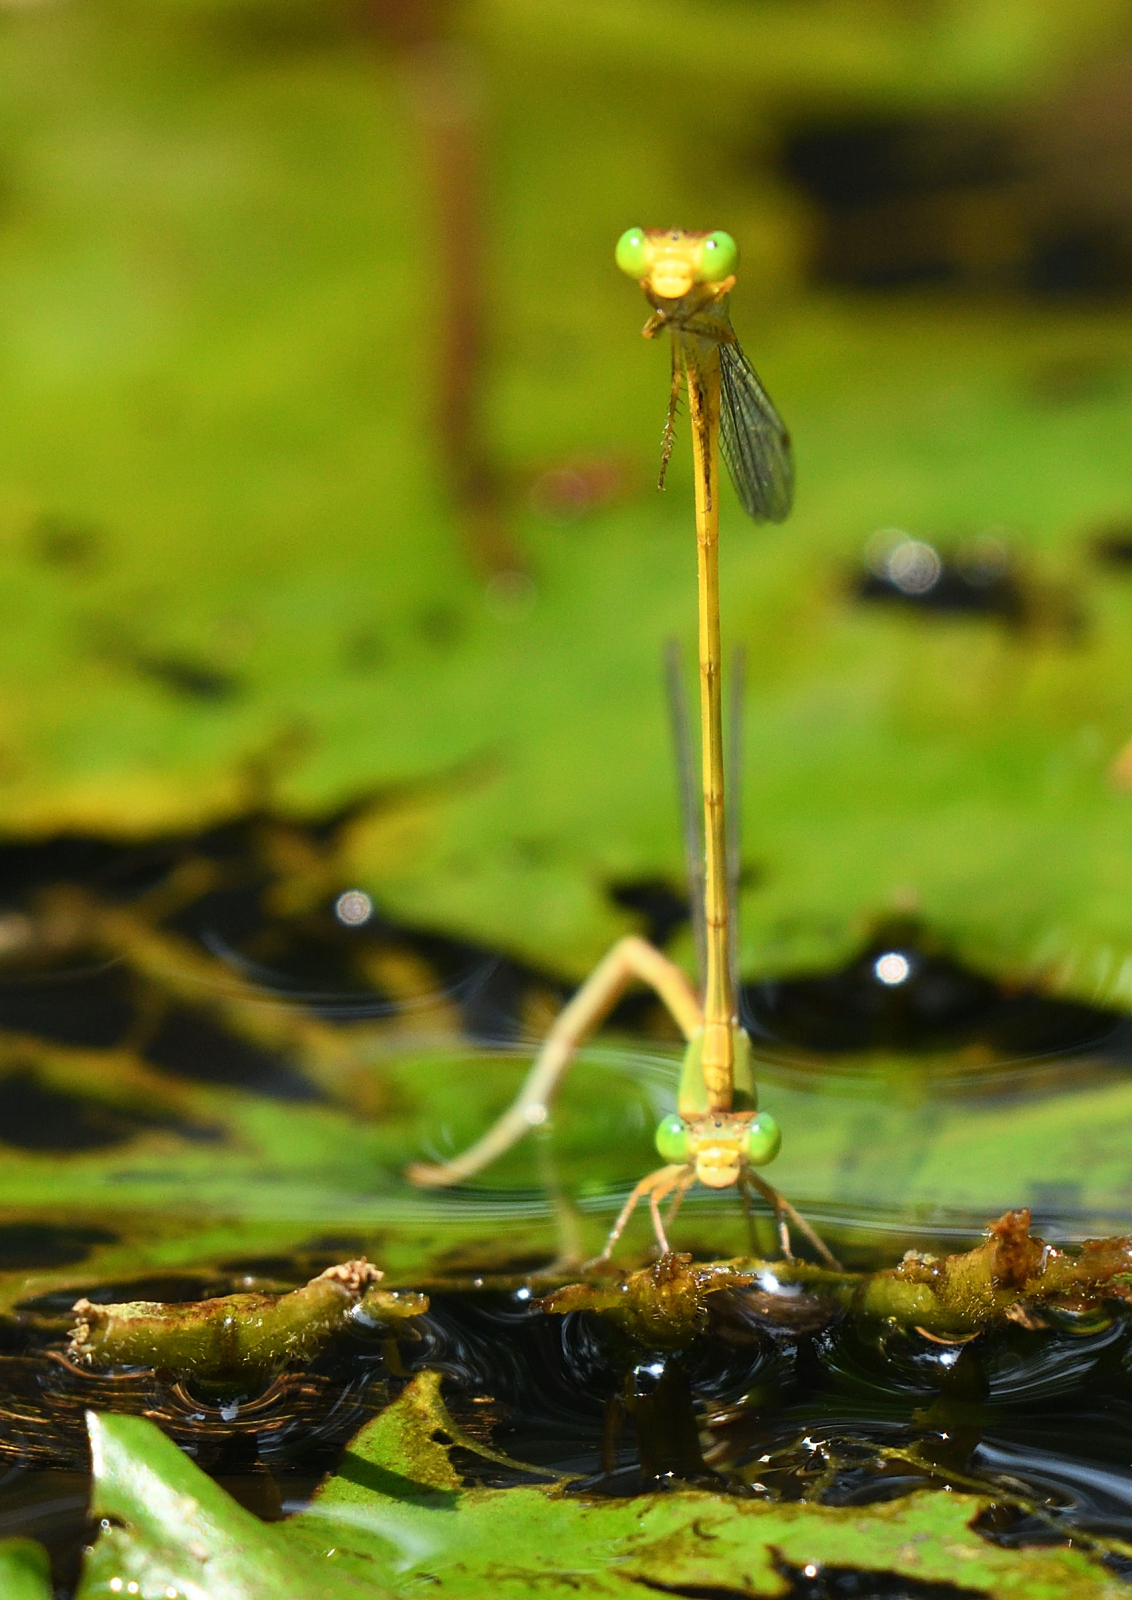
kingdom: Animalia
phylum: Arthropoda
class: Insecta
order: Odonata
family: Coenagrionidae
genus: Ceriagrion
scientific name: Ceriagrion coromandelianum
